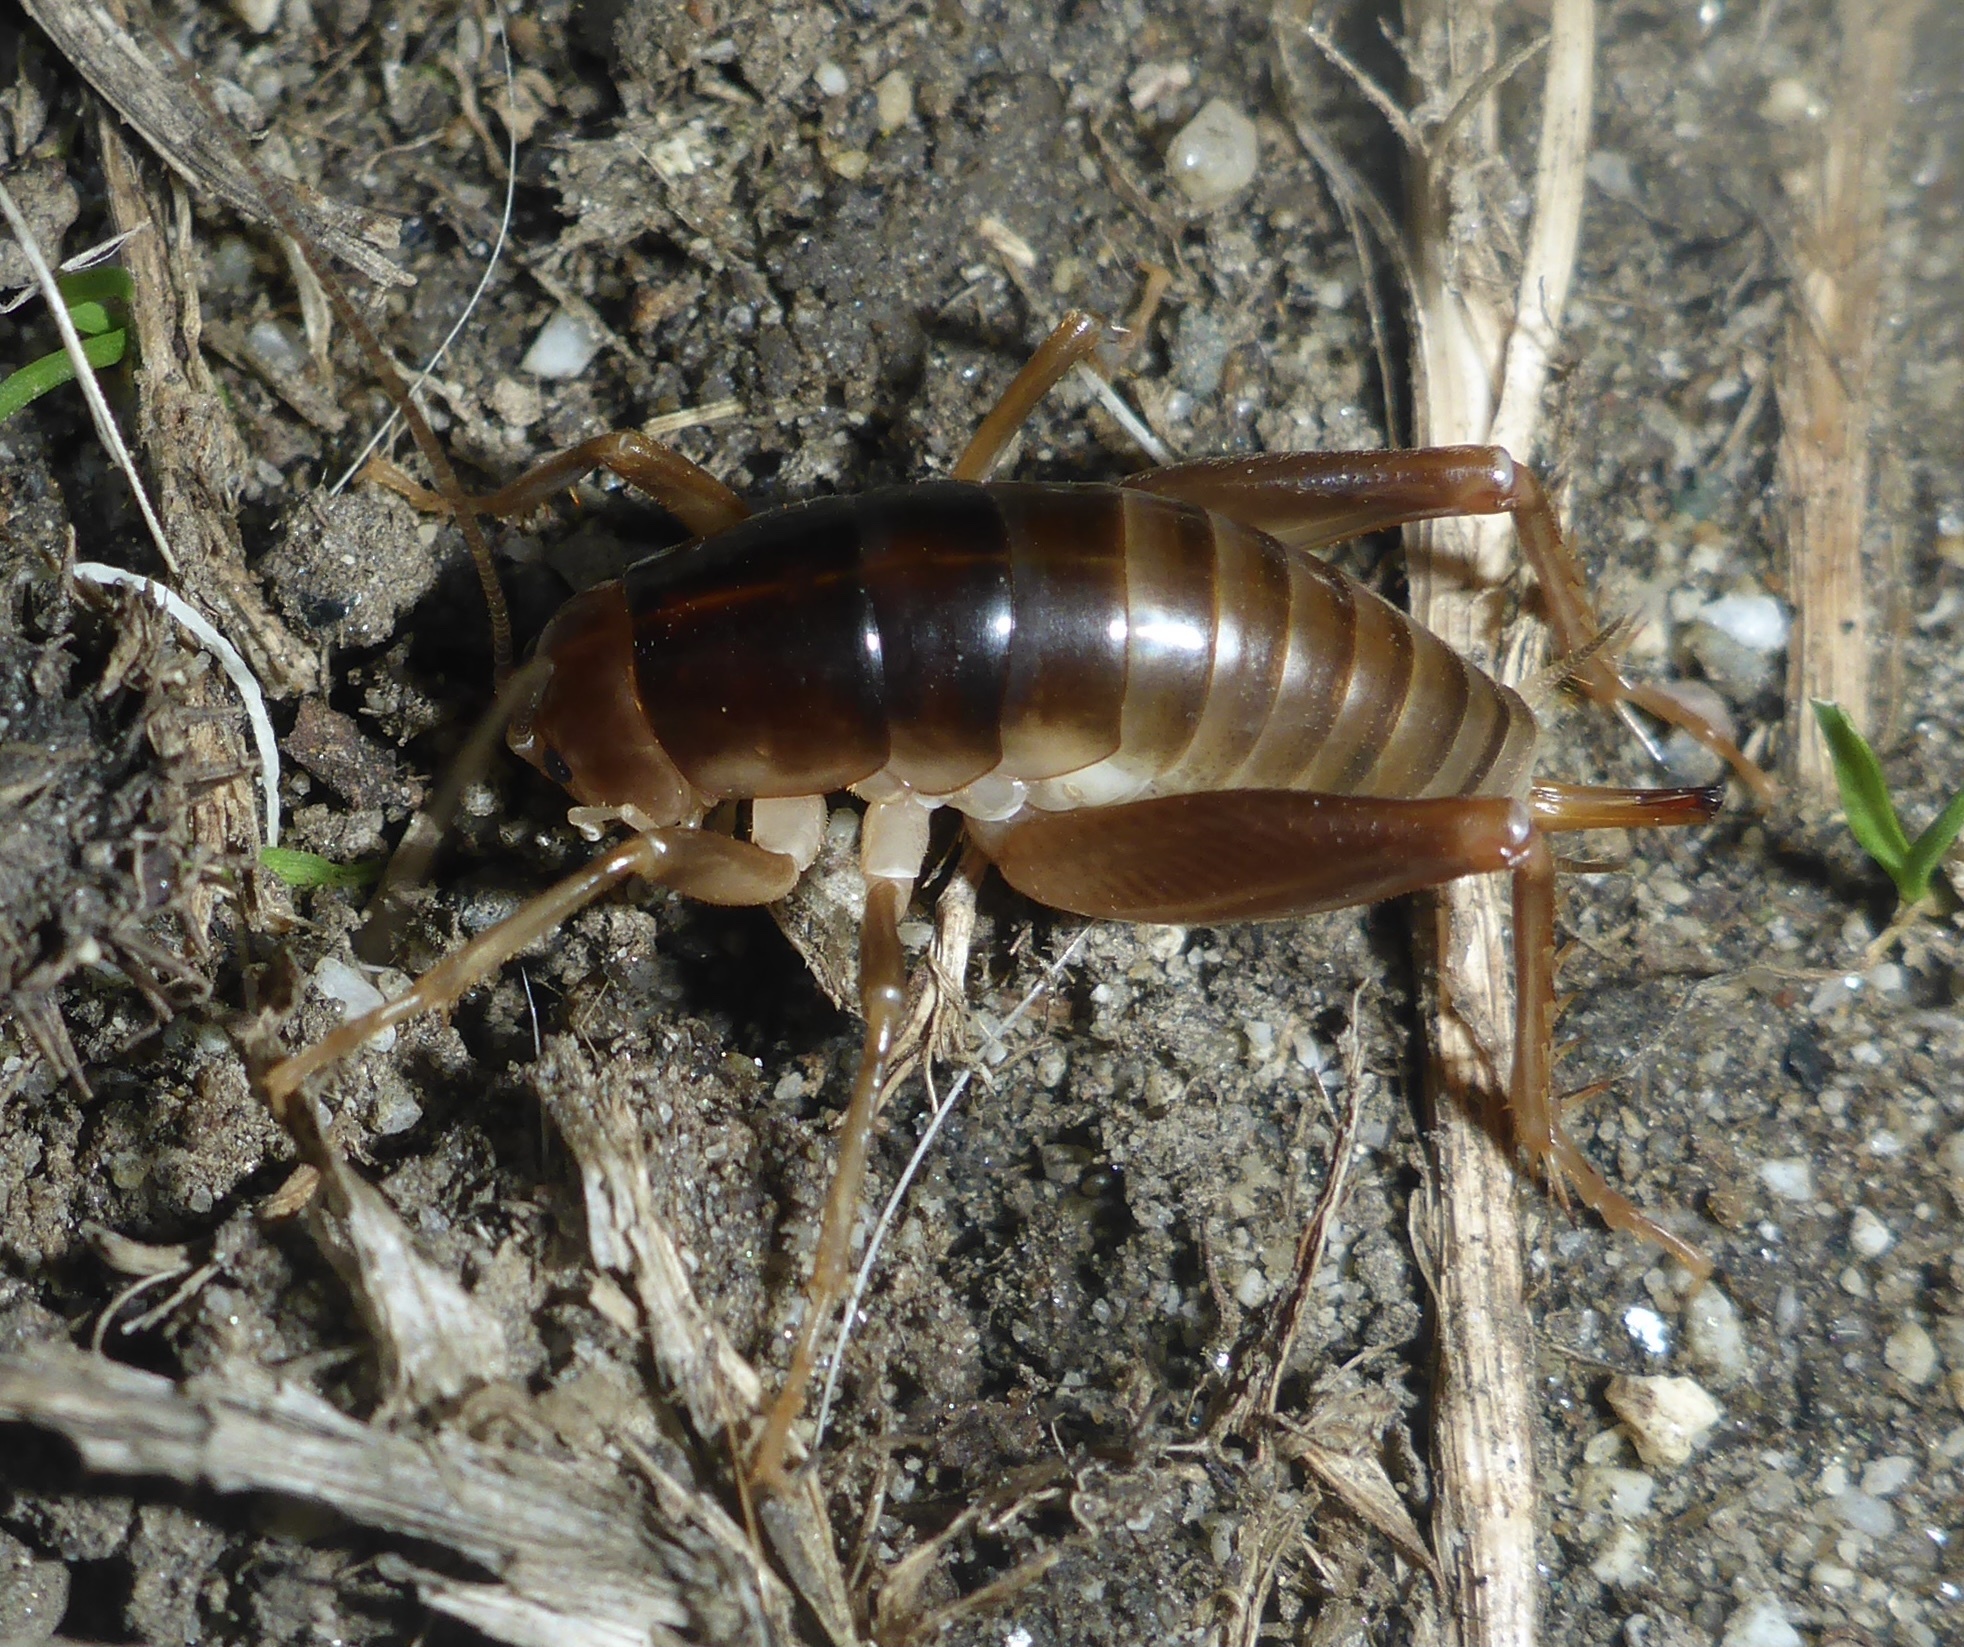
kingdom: Animalia
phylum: Arthropoda
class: Insecta
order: Orthoptera
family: Rhaphidophoridae
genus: Ceuthophilus
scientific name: Ceuthophilus californianus
